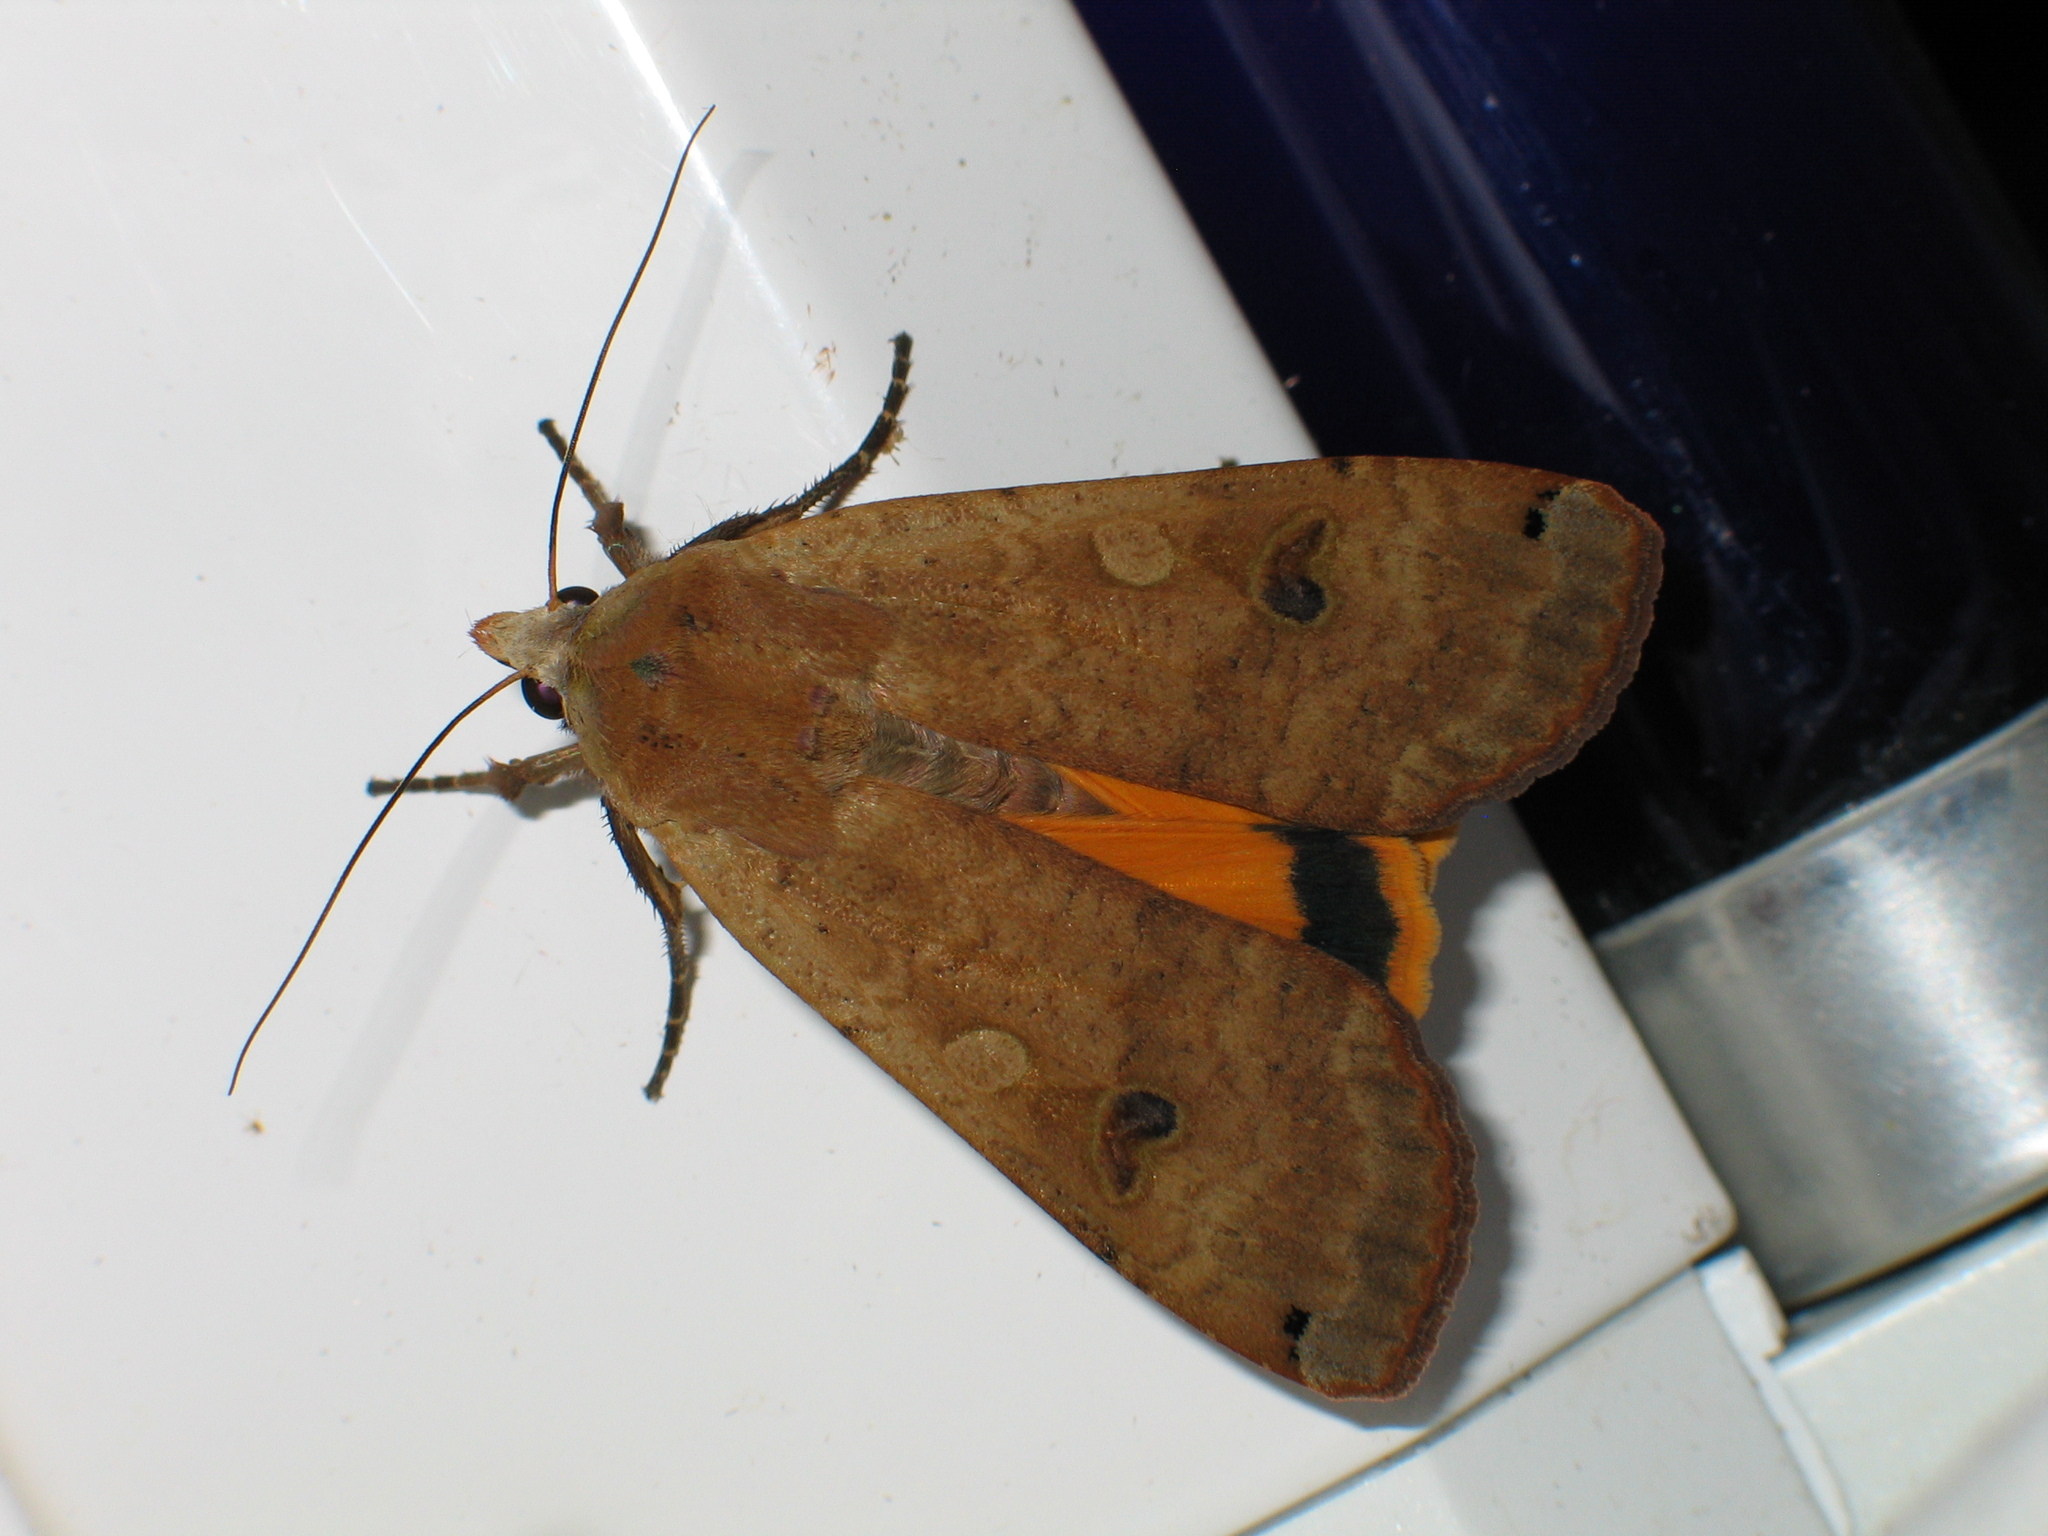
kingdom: Animalia
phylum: Arthropoda
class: Insecta
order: Lepidoptera
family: Noctuidae
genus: Noctua
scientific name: Noctua pronuba
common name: Large yellow underwing
